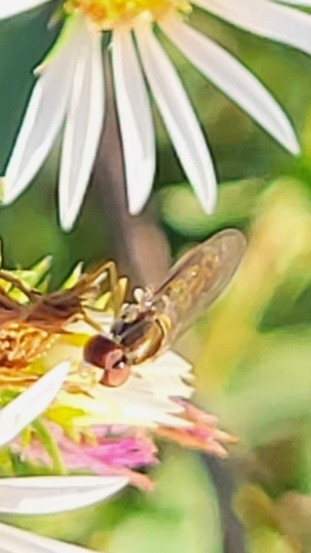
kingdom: Animalia
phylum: Arthropoda
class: Insecta
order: Diptera
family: Syrphidae
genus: Toxomerus
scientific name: Toxomerus marginatus
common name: Syrphid fly
